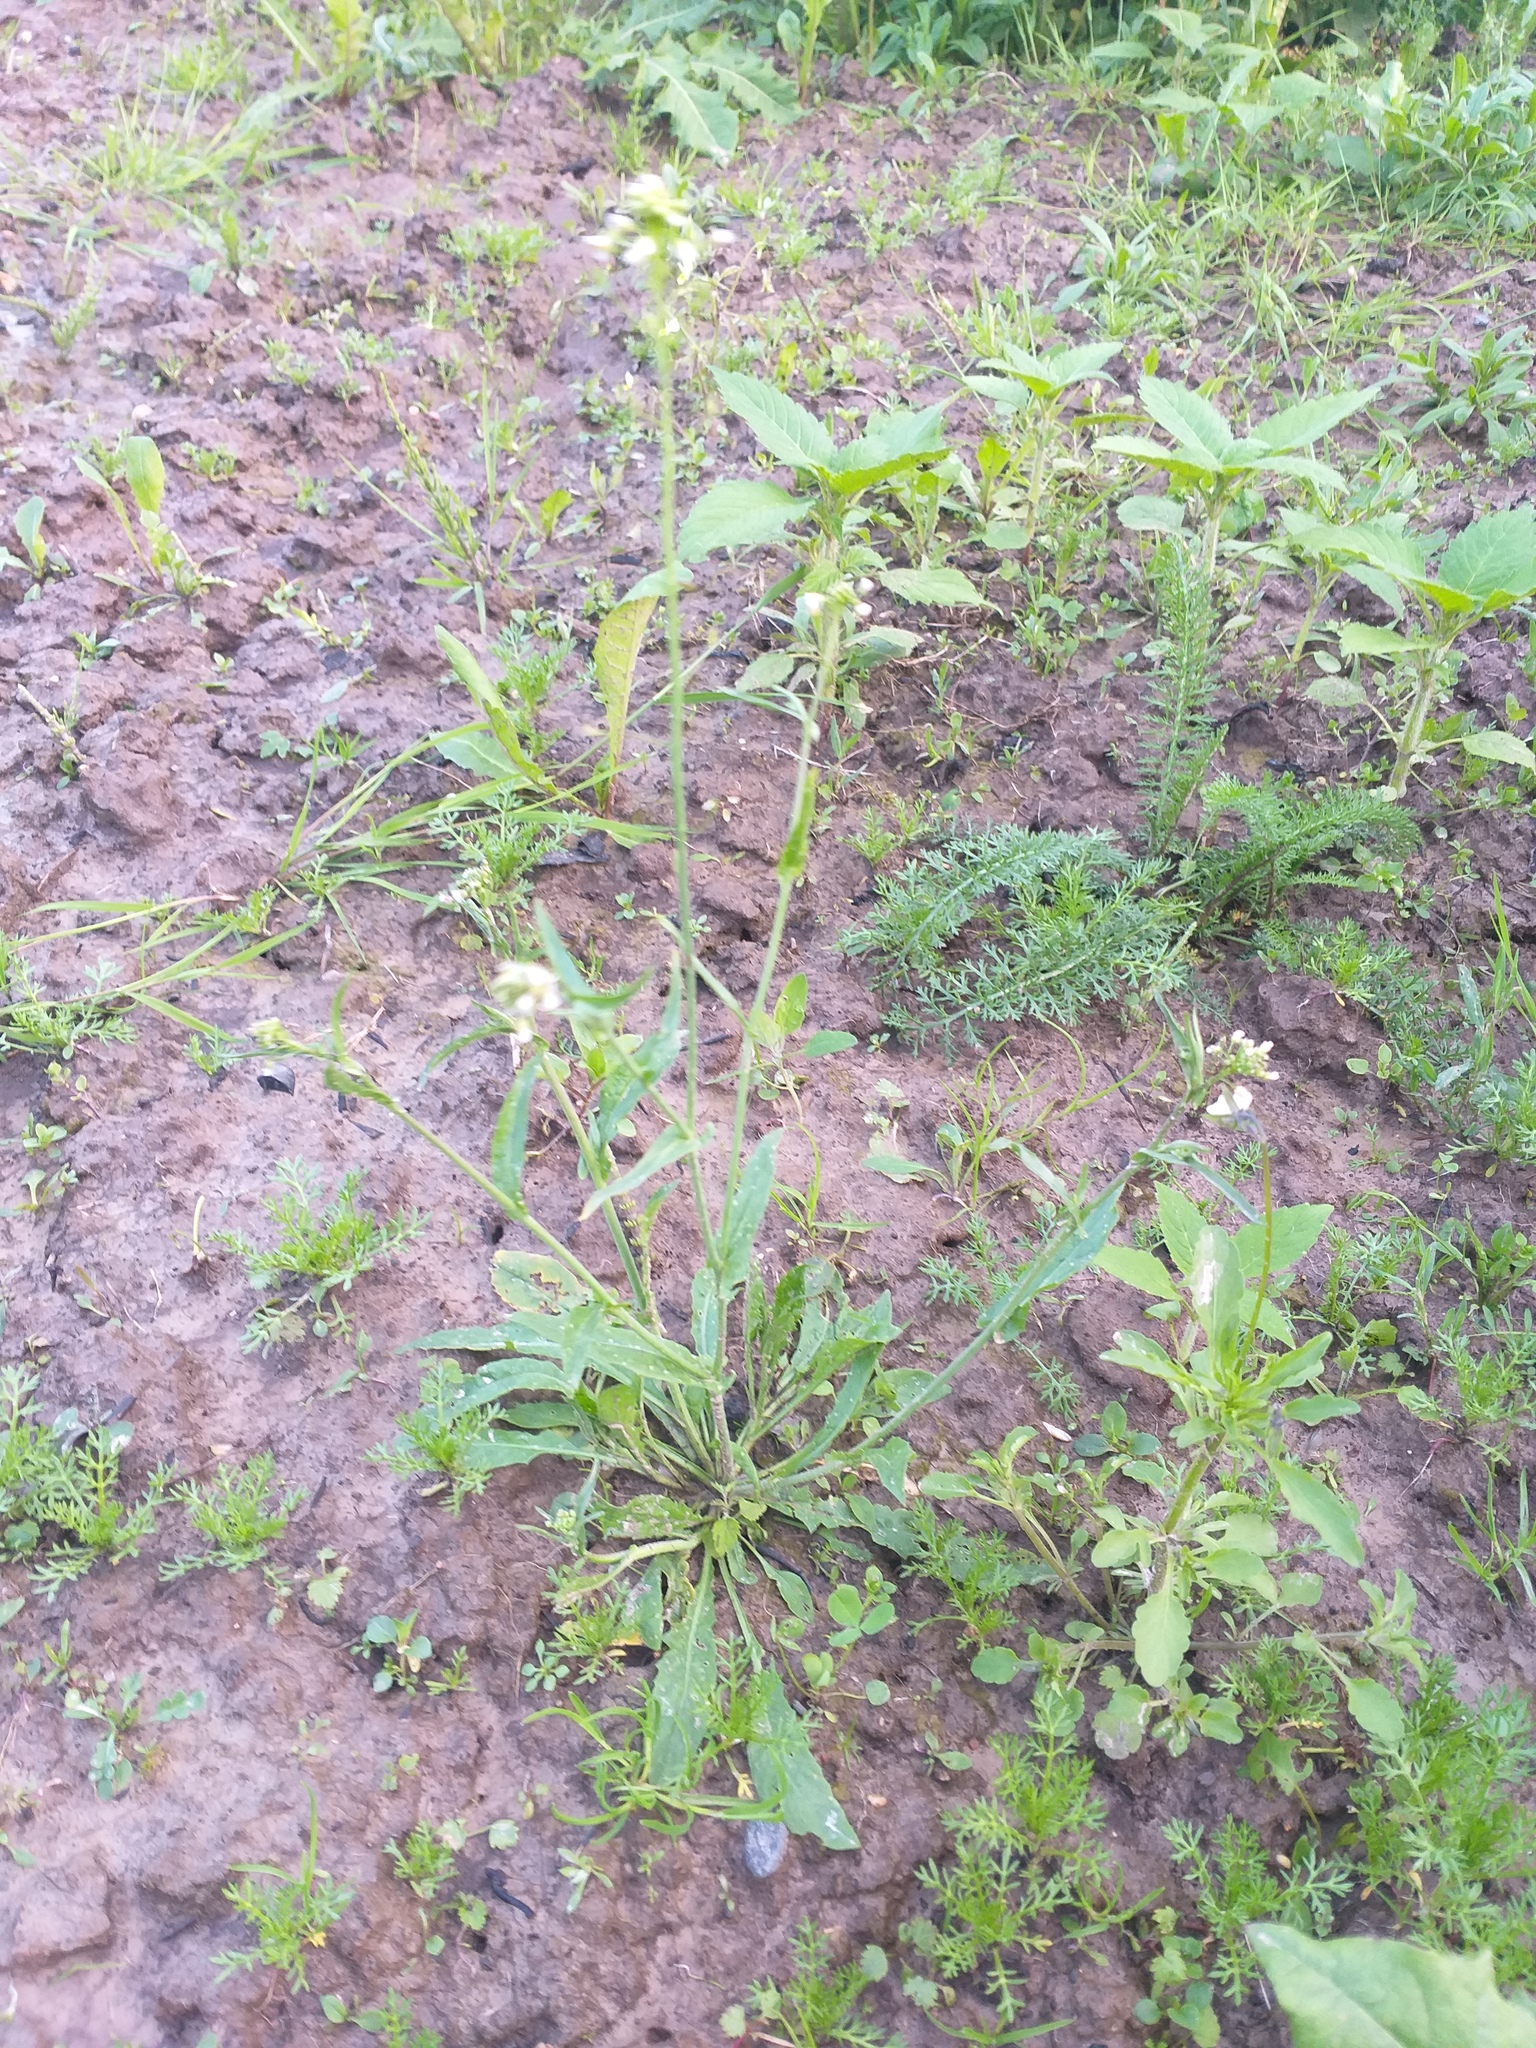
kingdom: Plantae
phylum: Tracheophyta
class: Magnoliopsida
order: Brassicales
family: Brassicaceae
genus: Capsella
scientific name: Capsella bursa-pastoris
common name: Shepherd's purse
